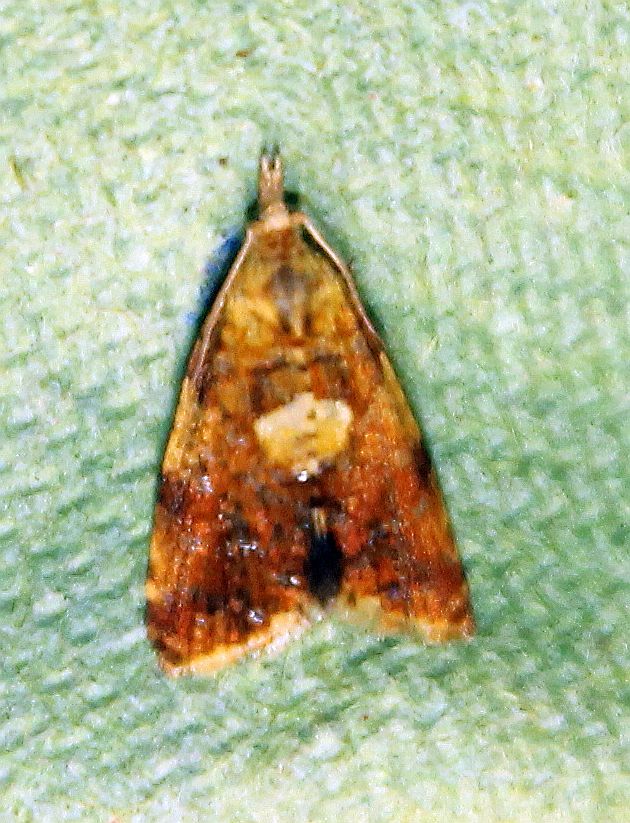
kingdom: Animalia
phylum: Arthropoda
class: Insecta
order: Lepidoptera
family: Tortricidae
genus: Pseudargyrotoza
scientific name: Pseudargyrotoza conwagana
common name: Yellow-spot twist
